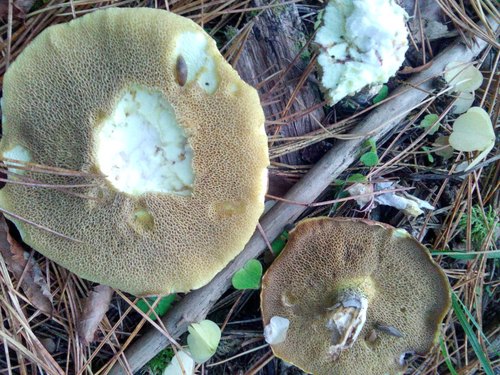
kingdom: Fungi
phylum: Basidiomycota
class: Agaricomycetes
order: Boletales
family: Suillaceae
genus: Suillus
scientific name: Suillus placidus
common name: Slippery white bolete
